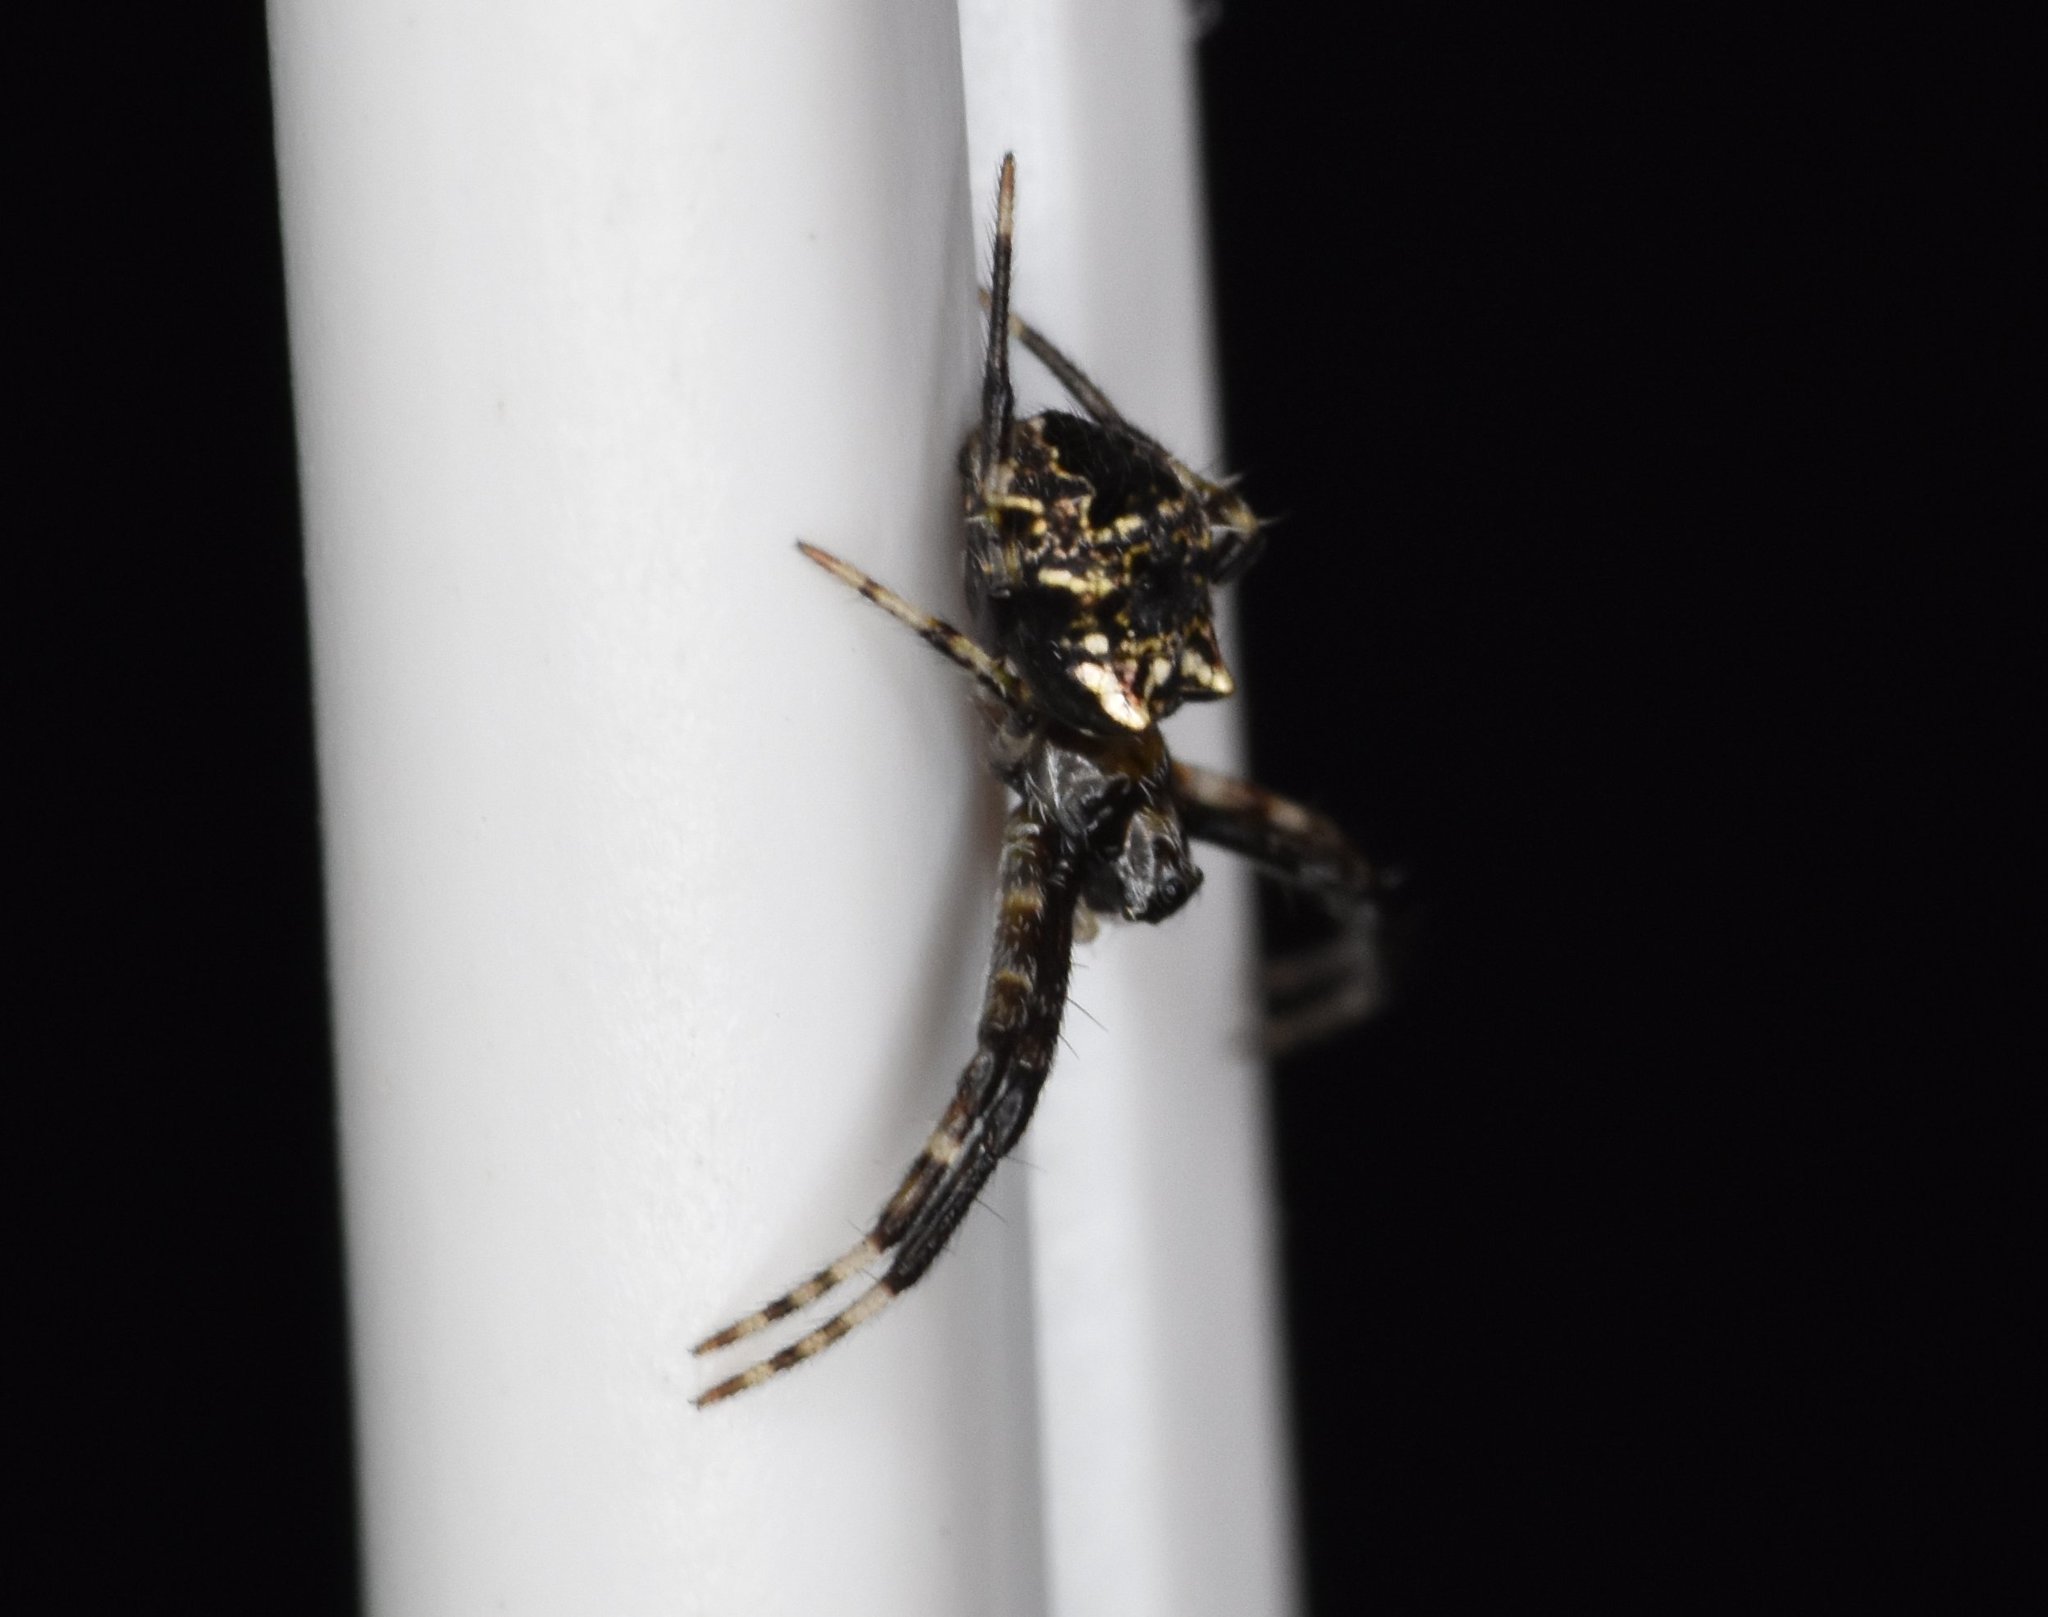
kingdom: Animalia
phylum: Arthropoda
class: Arachnida
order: Araneae
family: Araneidae
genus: Gea
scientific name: Gea heptagon
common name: Orb weavers
